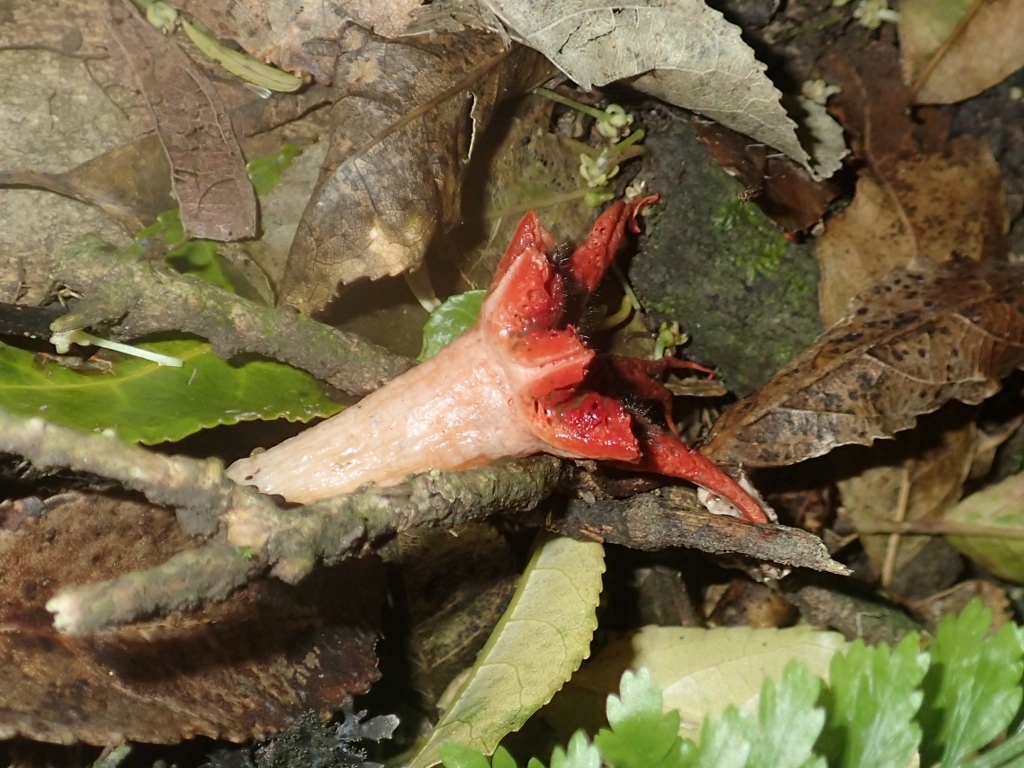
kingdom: Fungi
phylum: Basidiomycota
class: Agaricomycetes
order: Phallales
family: Phallaceae
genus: Aseroe
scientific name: Aseroe rubra
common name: Starfish fungus
